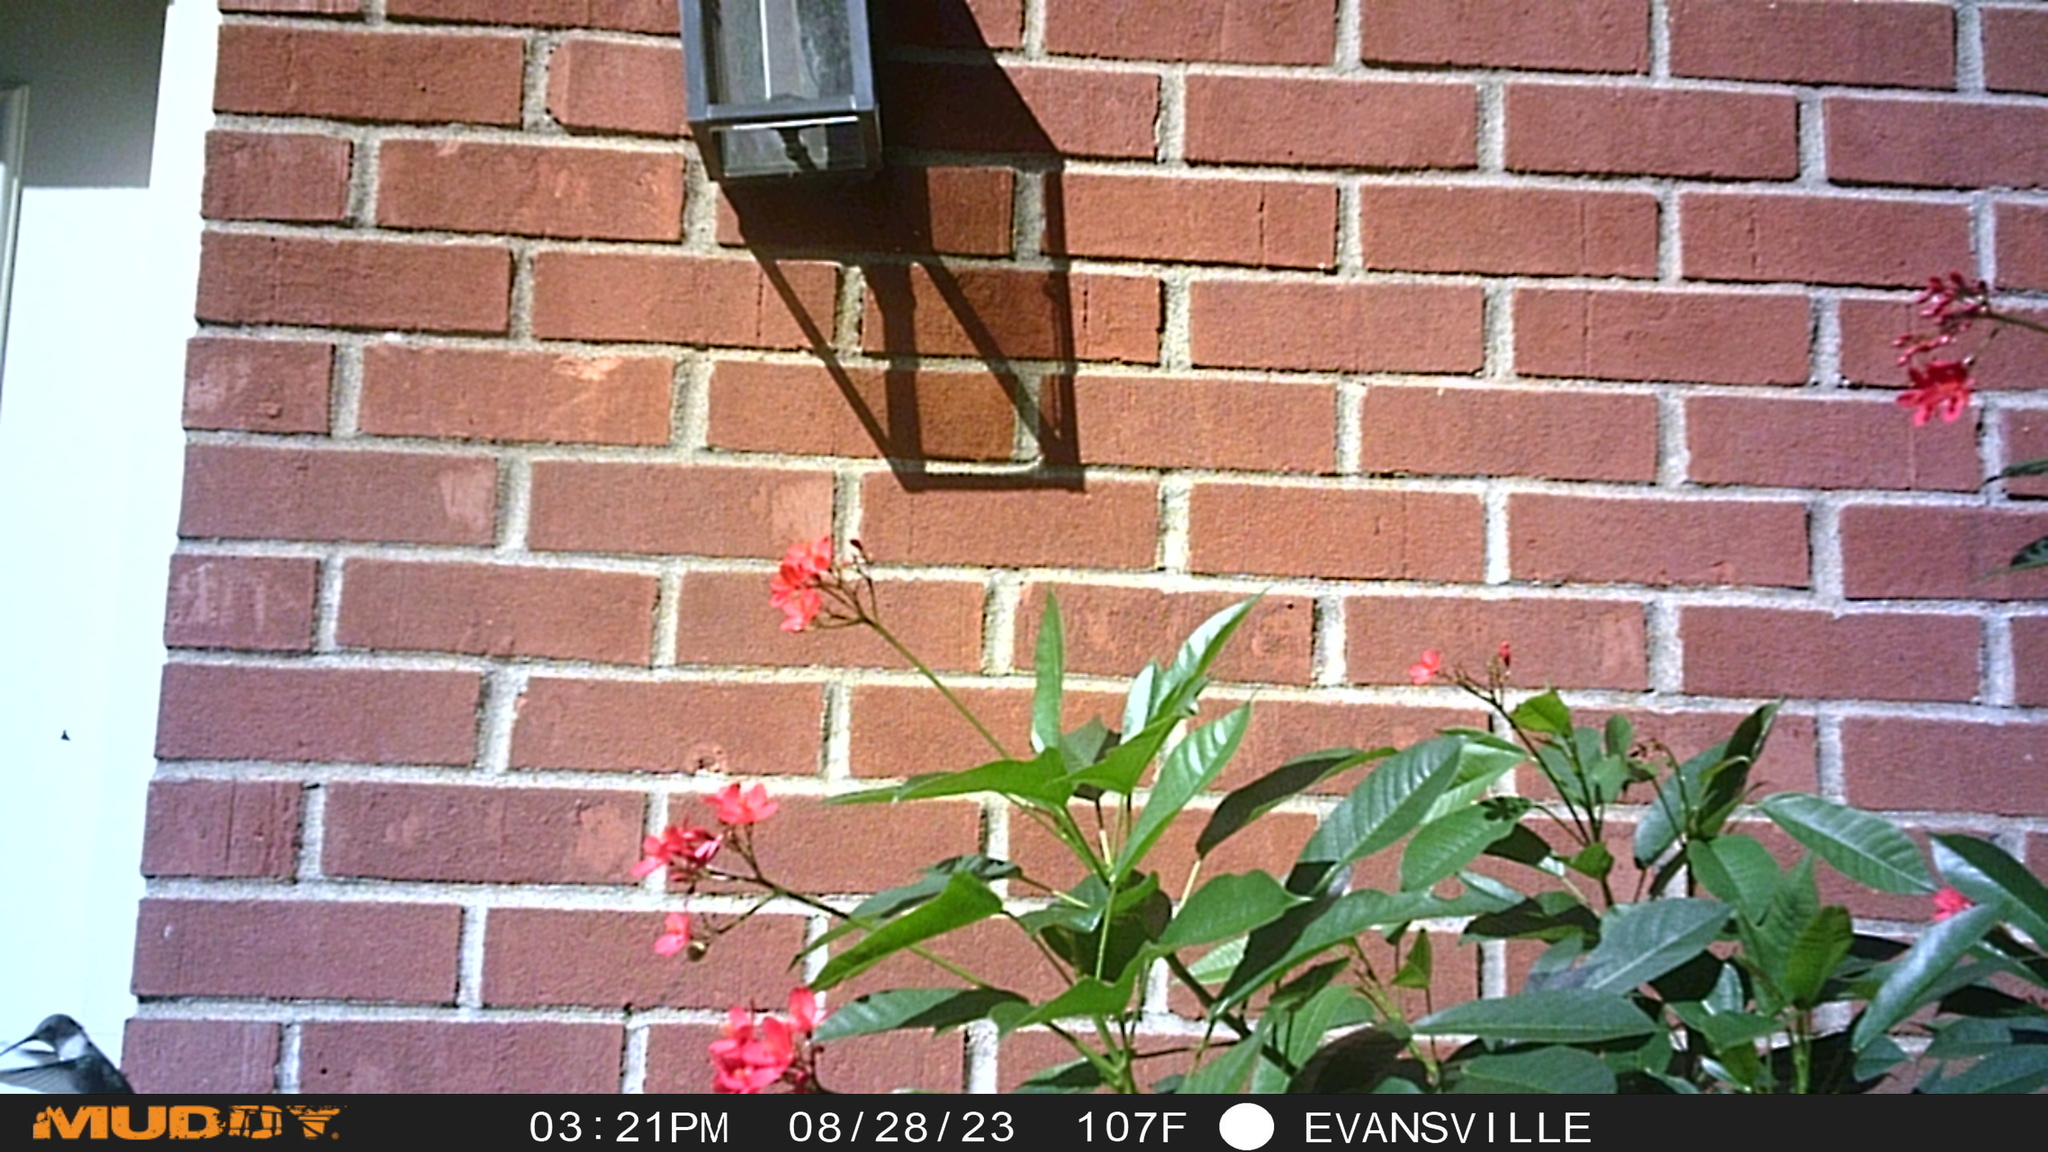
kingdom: Animalia
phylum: Chordata
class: Aves
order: Apodiformes
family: Trochilidae
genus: Archilochus
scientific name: Archilochus colubris
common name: Ruby-throated hummingbird
